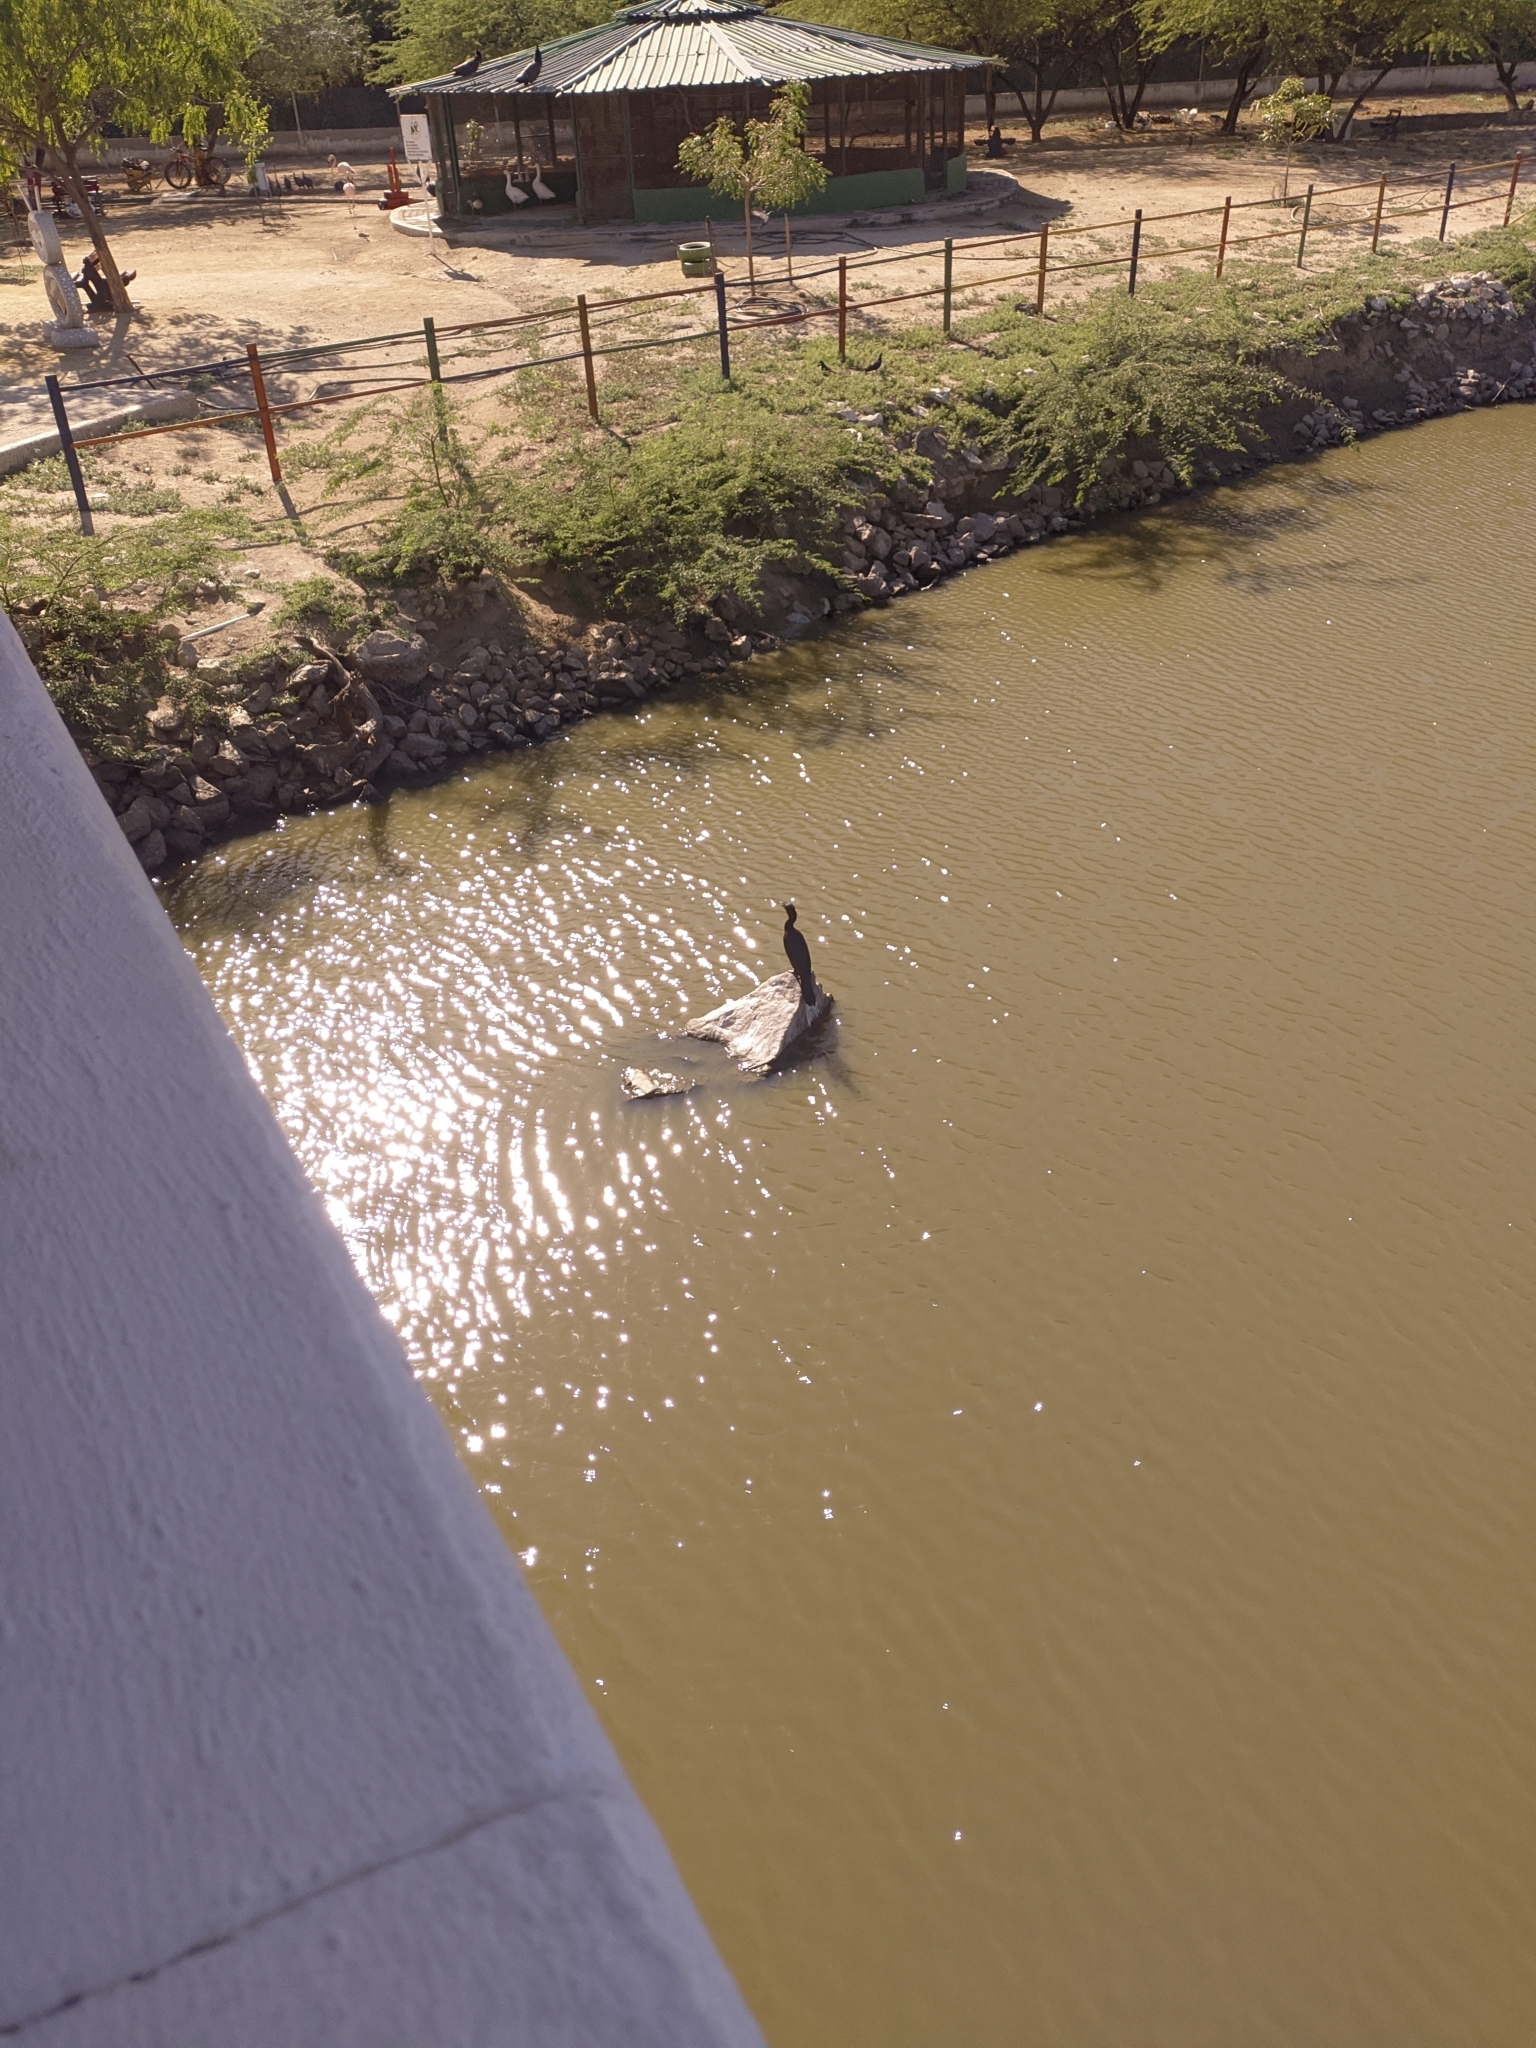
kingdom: Animalia
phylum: Chordata
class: Aves
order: Suliformes
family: Phalacrocoracidae
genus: Phalacrocorax
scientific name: Phalacrocorax brasilianus
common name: Neotropic cormorant
